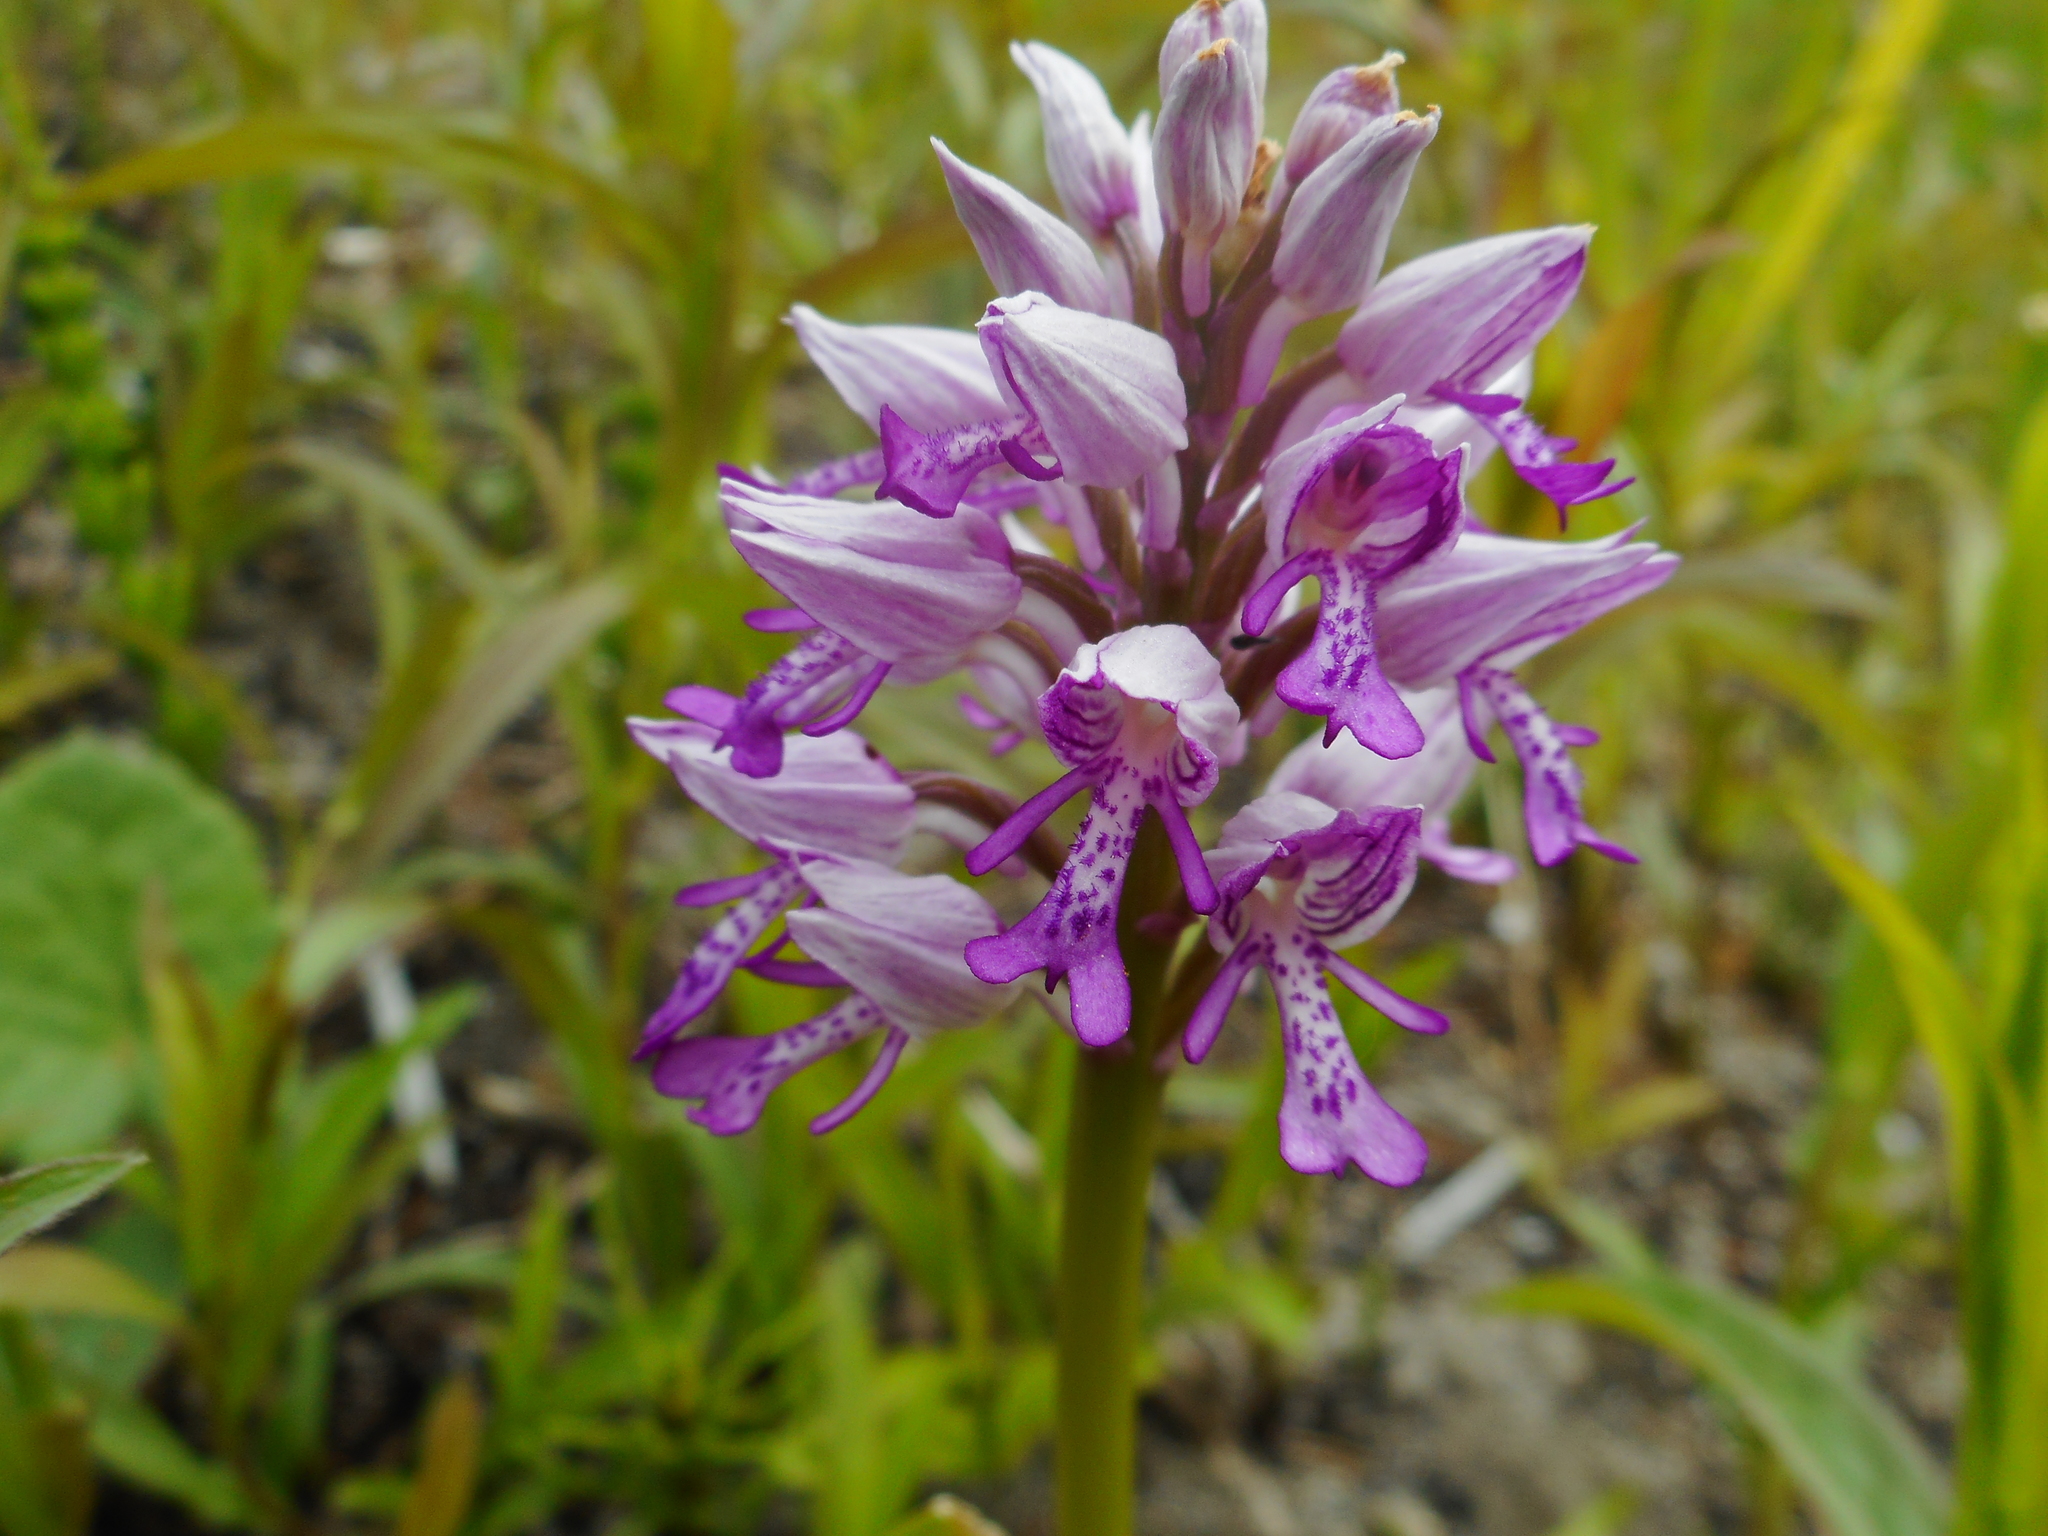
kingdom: Plantae
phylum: Tracheophyta
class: Liliopsida
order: Asparagales
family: Orchidaceae
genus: Orchis
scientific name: Orchis militaris
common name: Military orchid
